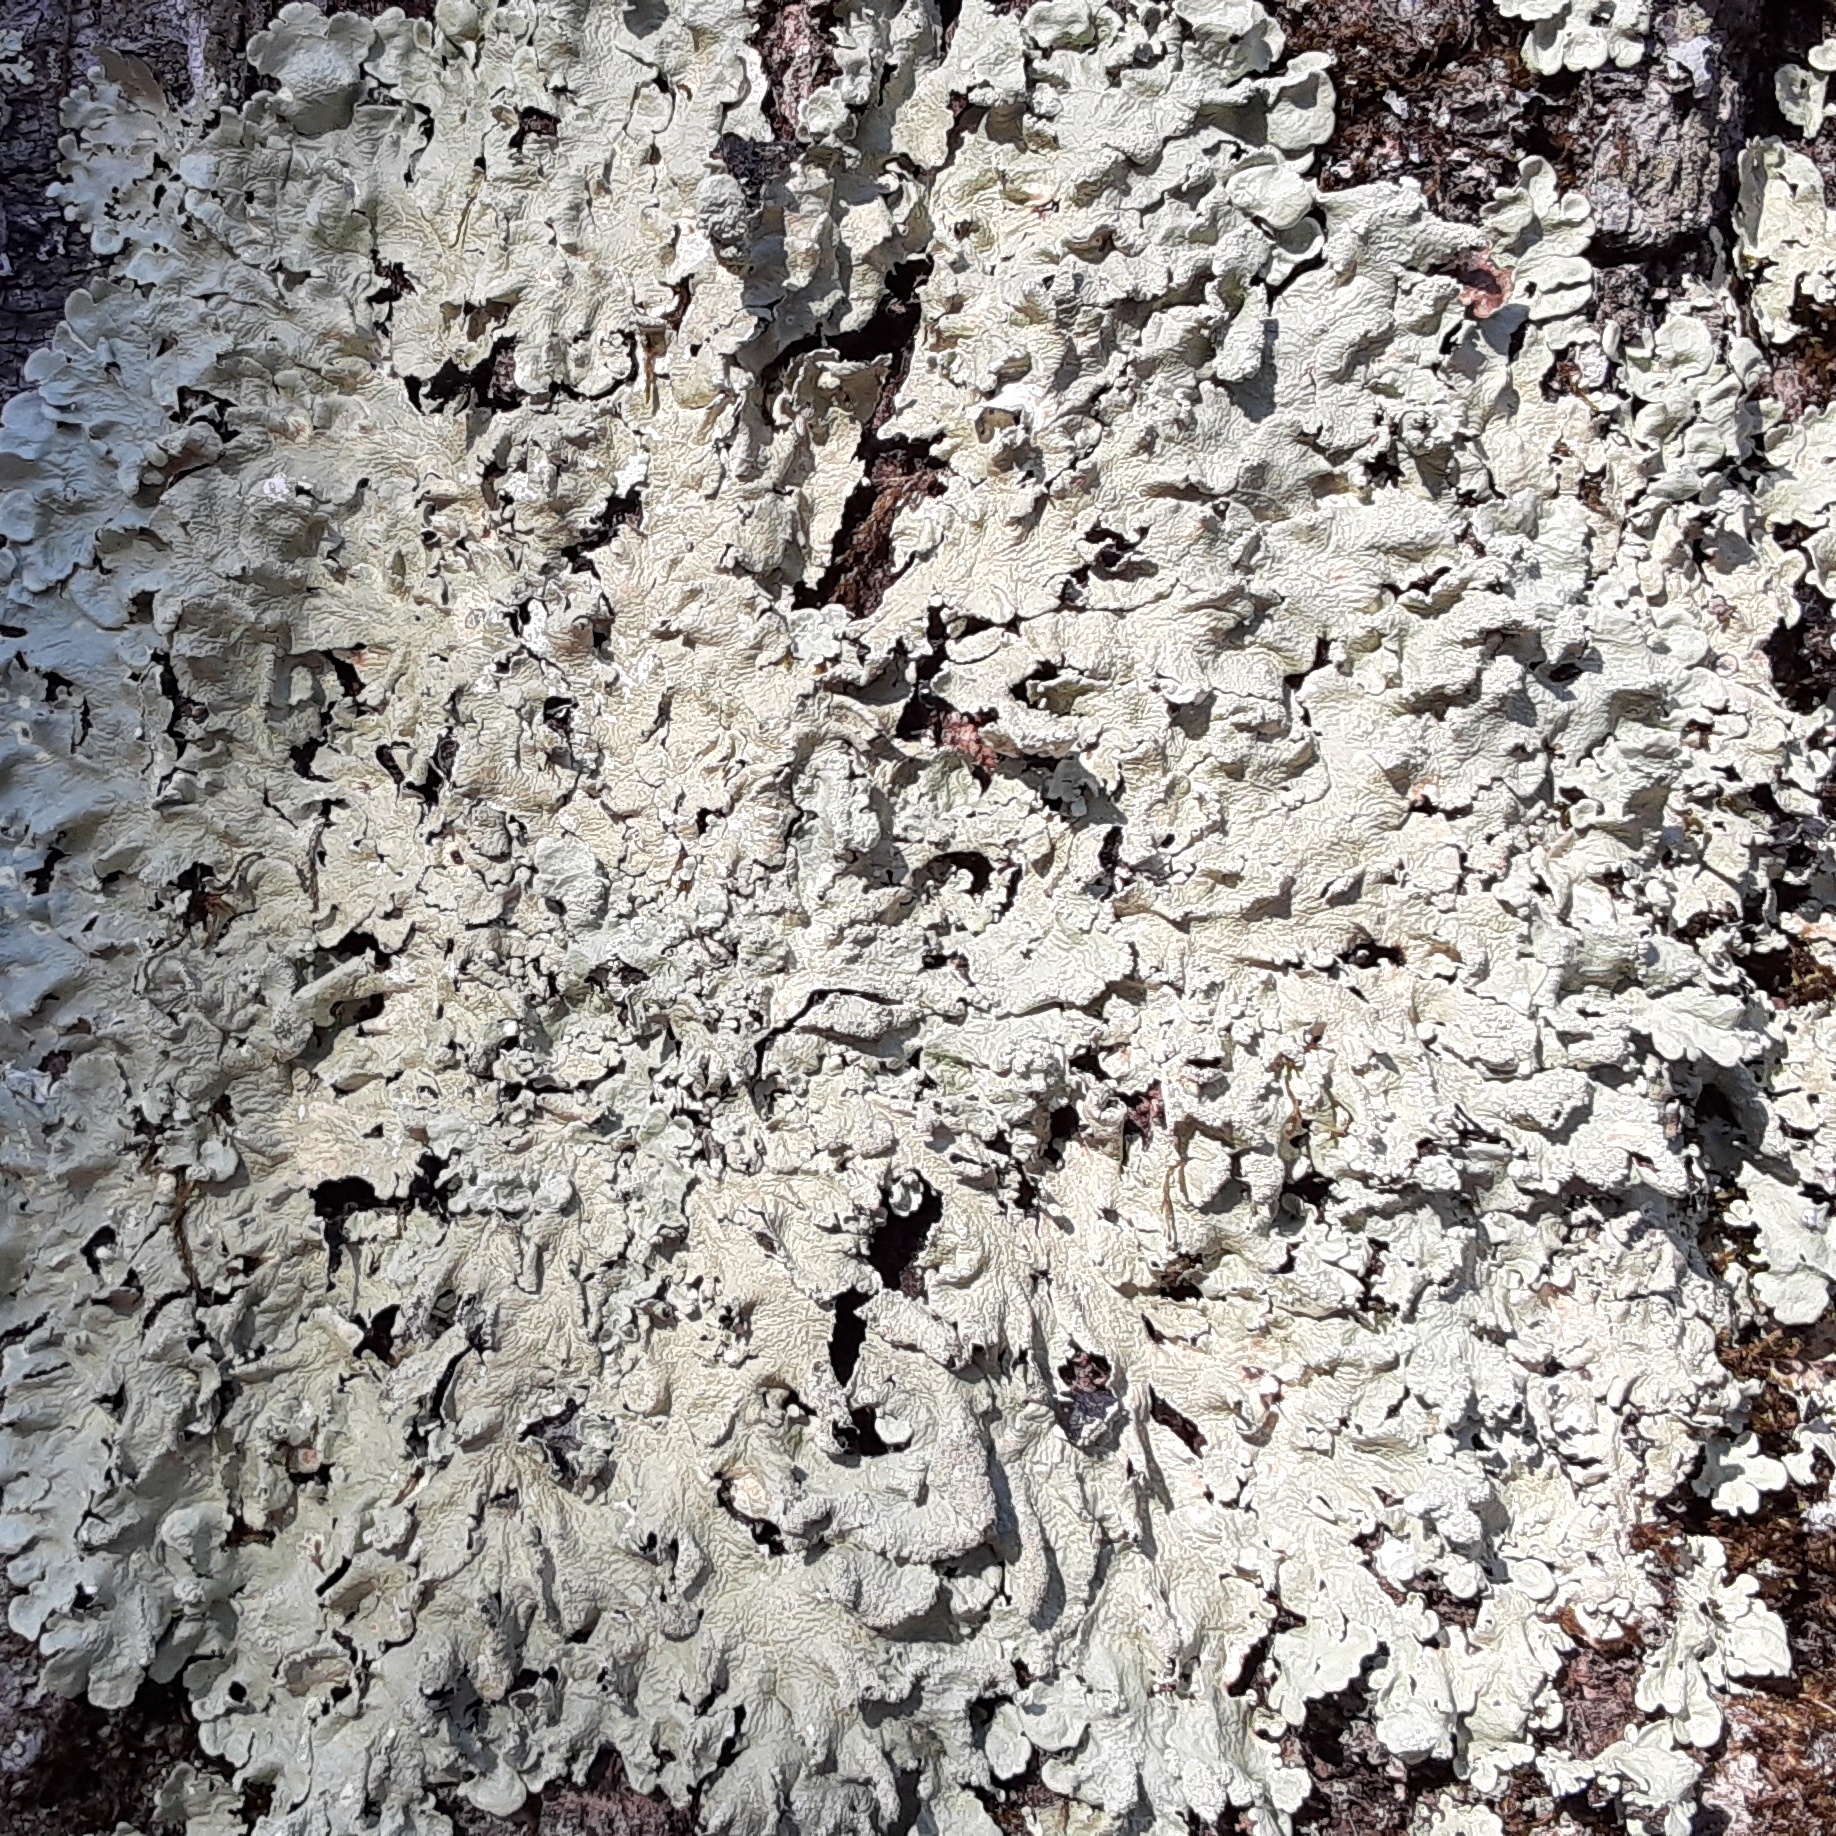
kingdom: Fungi
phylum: Ascomycota
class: Lecanoromycetes
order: Lecanorales
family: Parmeliaceae
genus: Flavoparmelia
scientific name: Flavoparmelia caperata
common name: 40-mile per hour lichen
